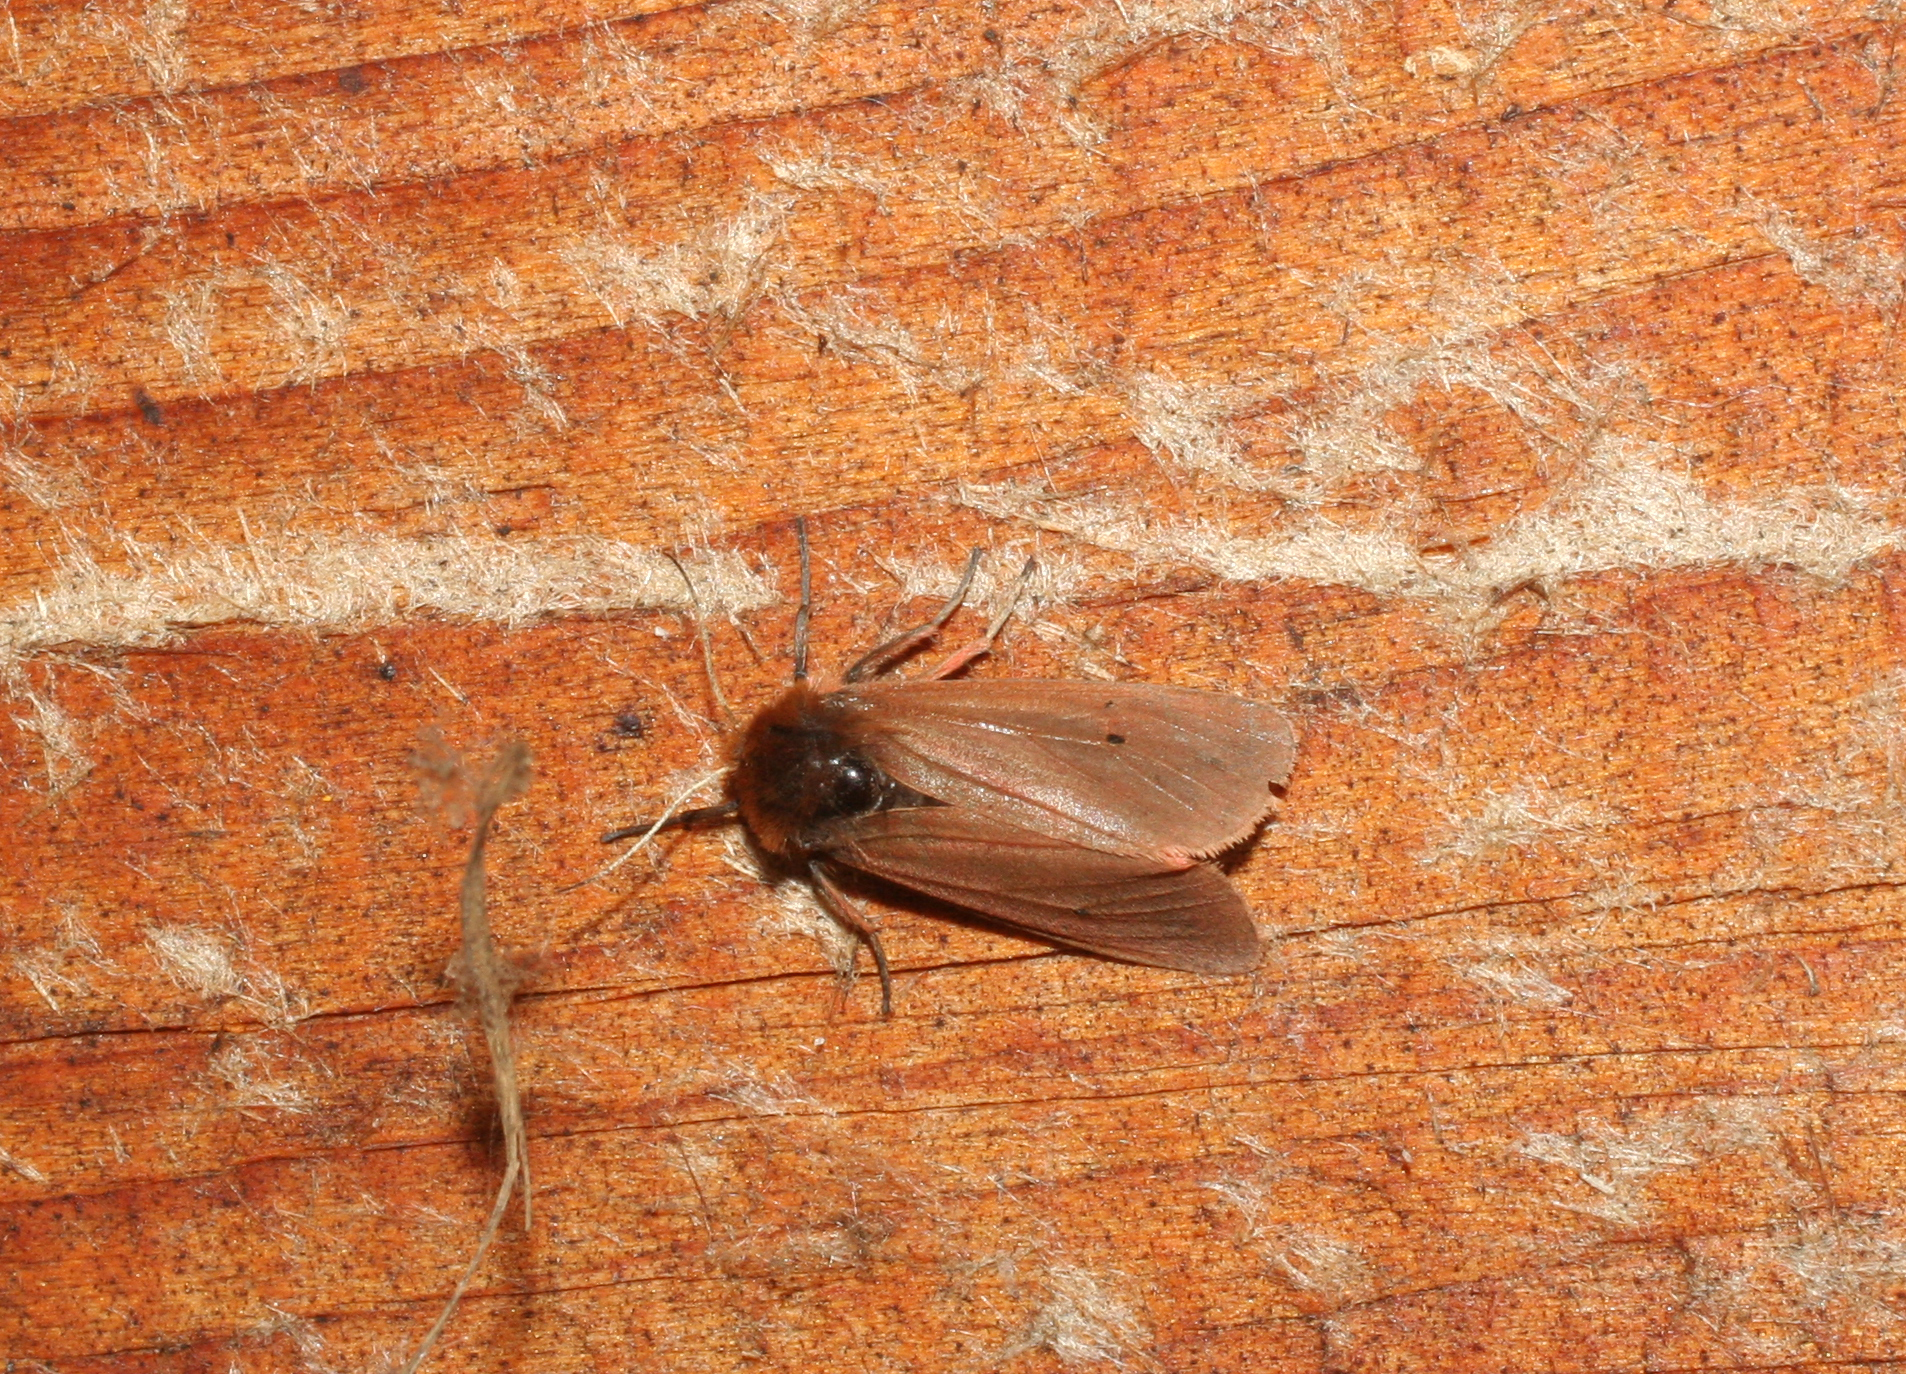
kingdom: Animalia
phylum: Arthropoda
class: Insecta
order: Lepidoptera
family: Erebidae
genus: Phragmatobia
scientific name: Phragmatobia fuliginosa
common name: Ruby tiger
